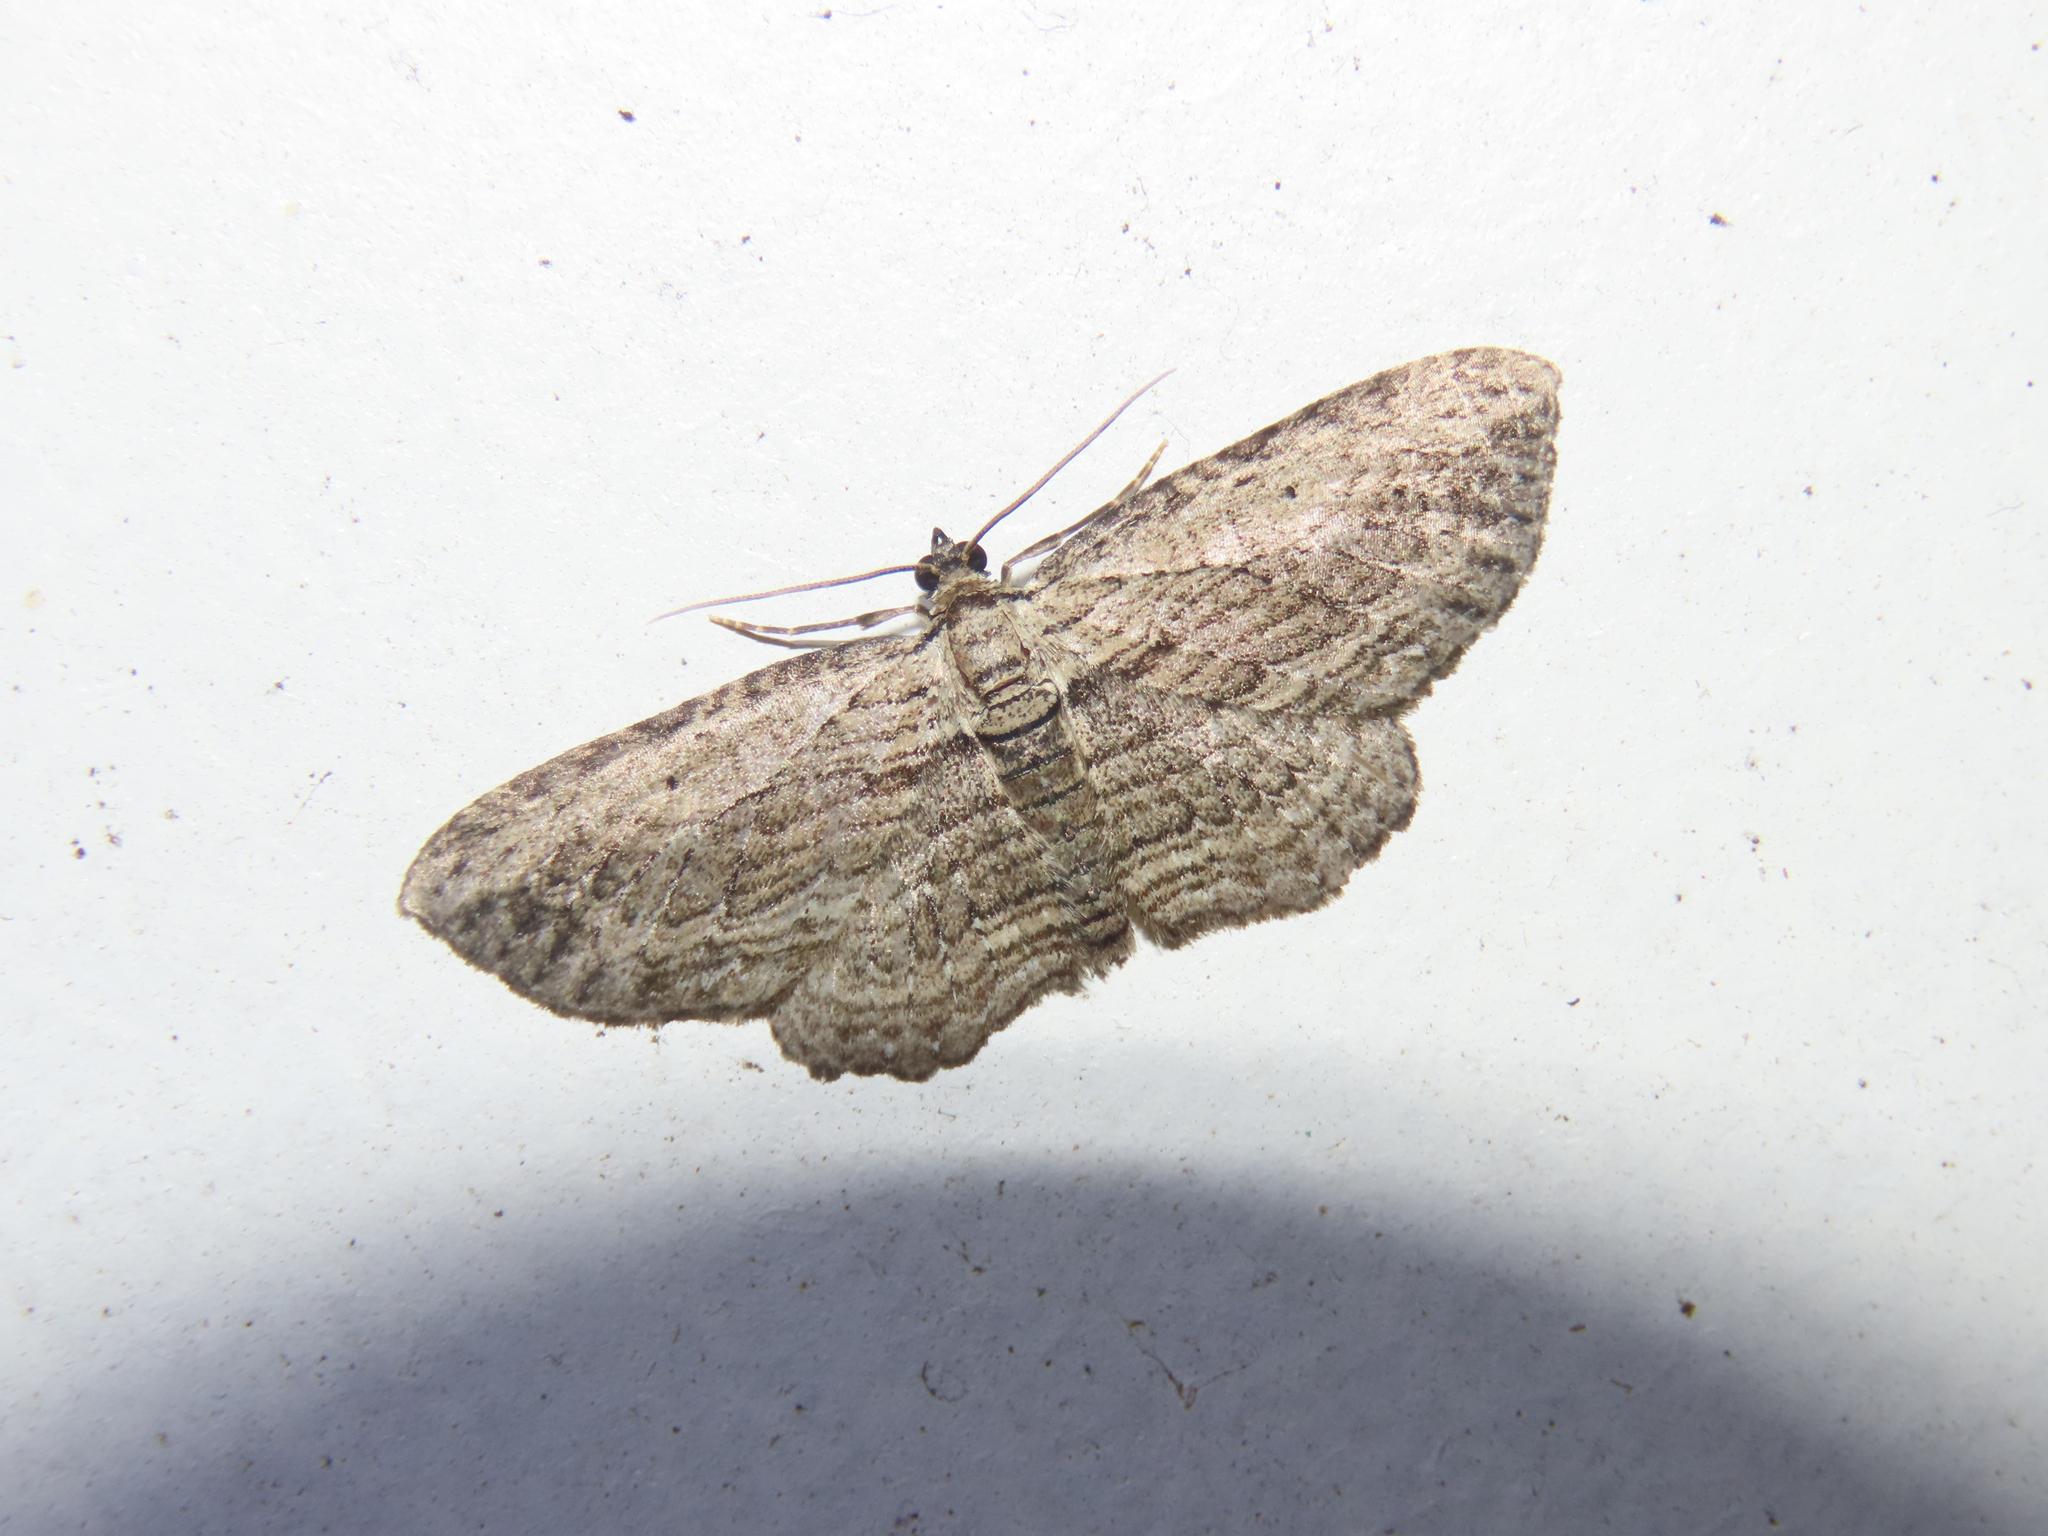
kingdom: Animalia
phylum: Arthropoda
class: Insecta
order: Lepidoptera
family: Geometridae
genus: Horisme
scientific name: Horisme intestinata
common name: Brown bark carpet
